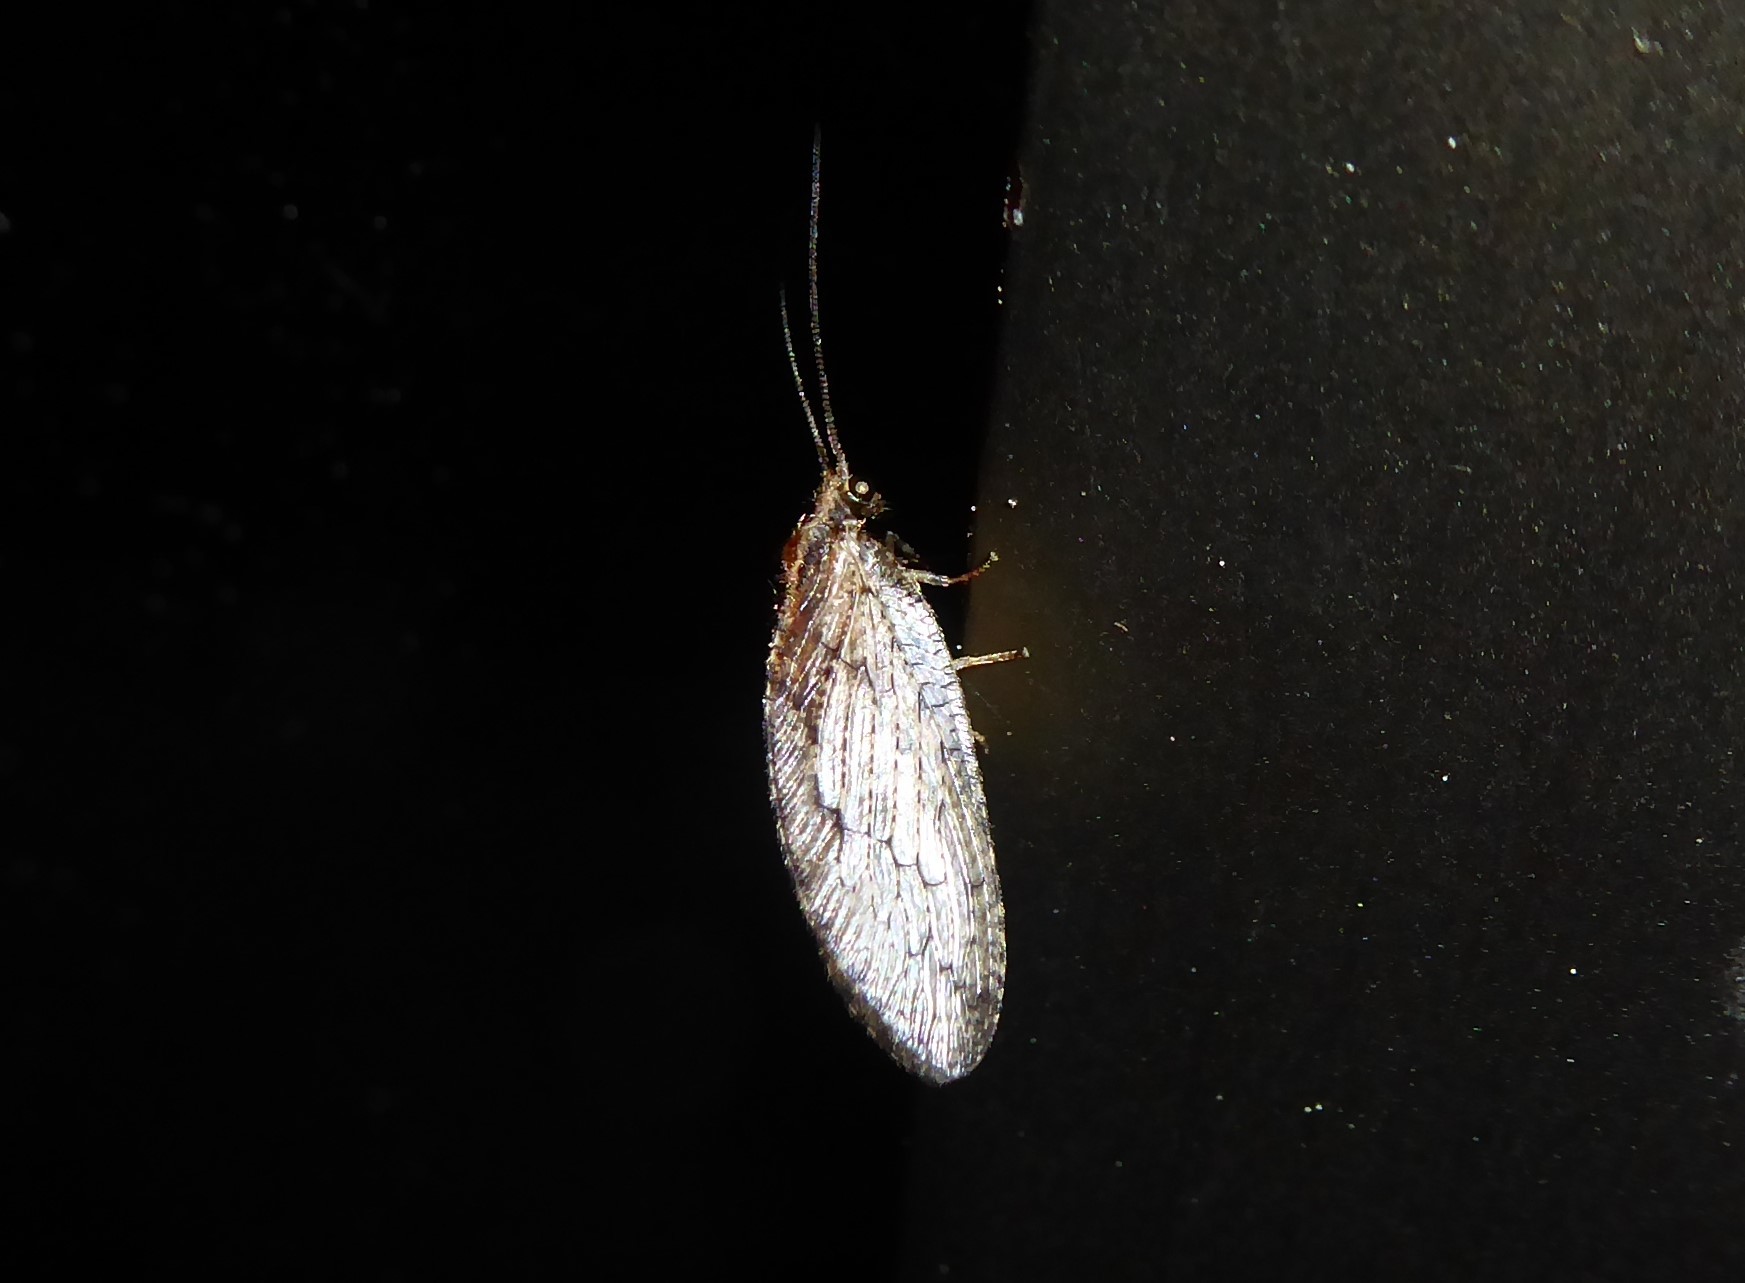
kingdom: Animalia
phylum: Arthropoda
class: Insecta
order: Neuroptera
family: Hemerobiidae
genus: Wesmaelius
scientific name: Wesmaelius subnebulosus
